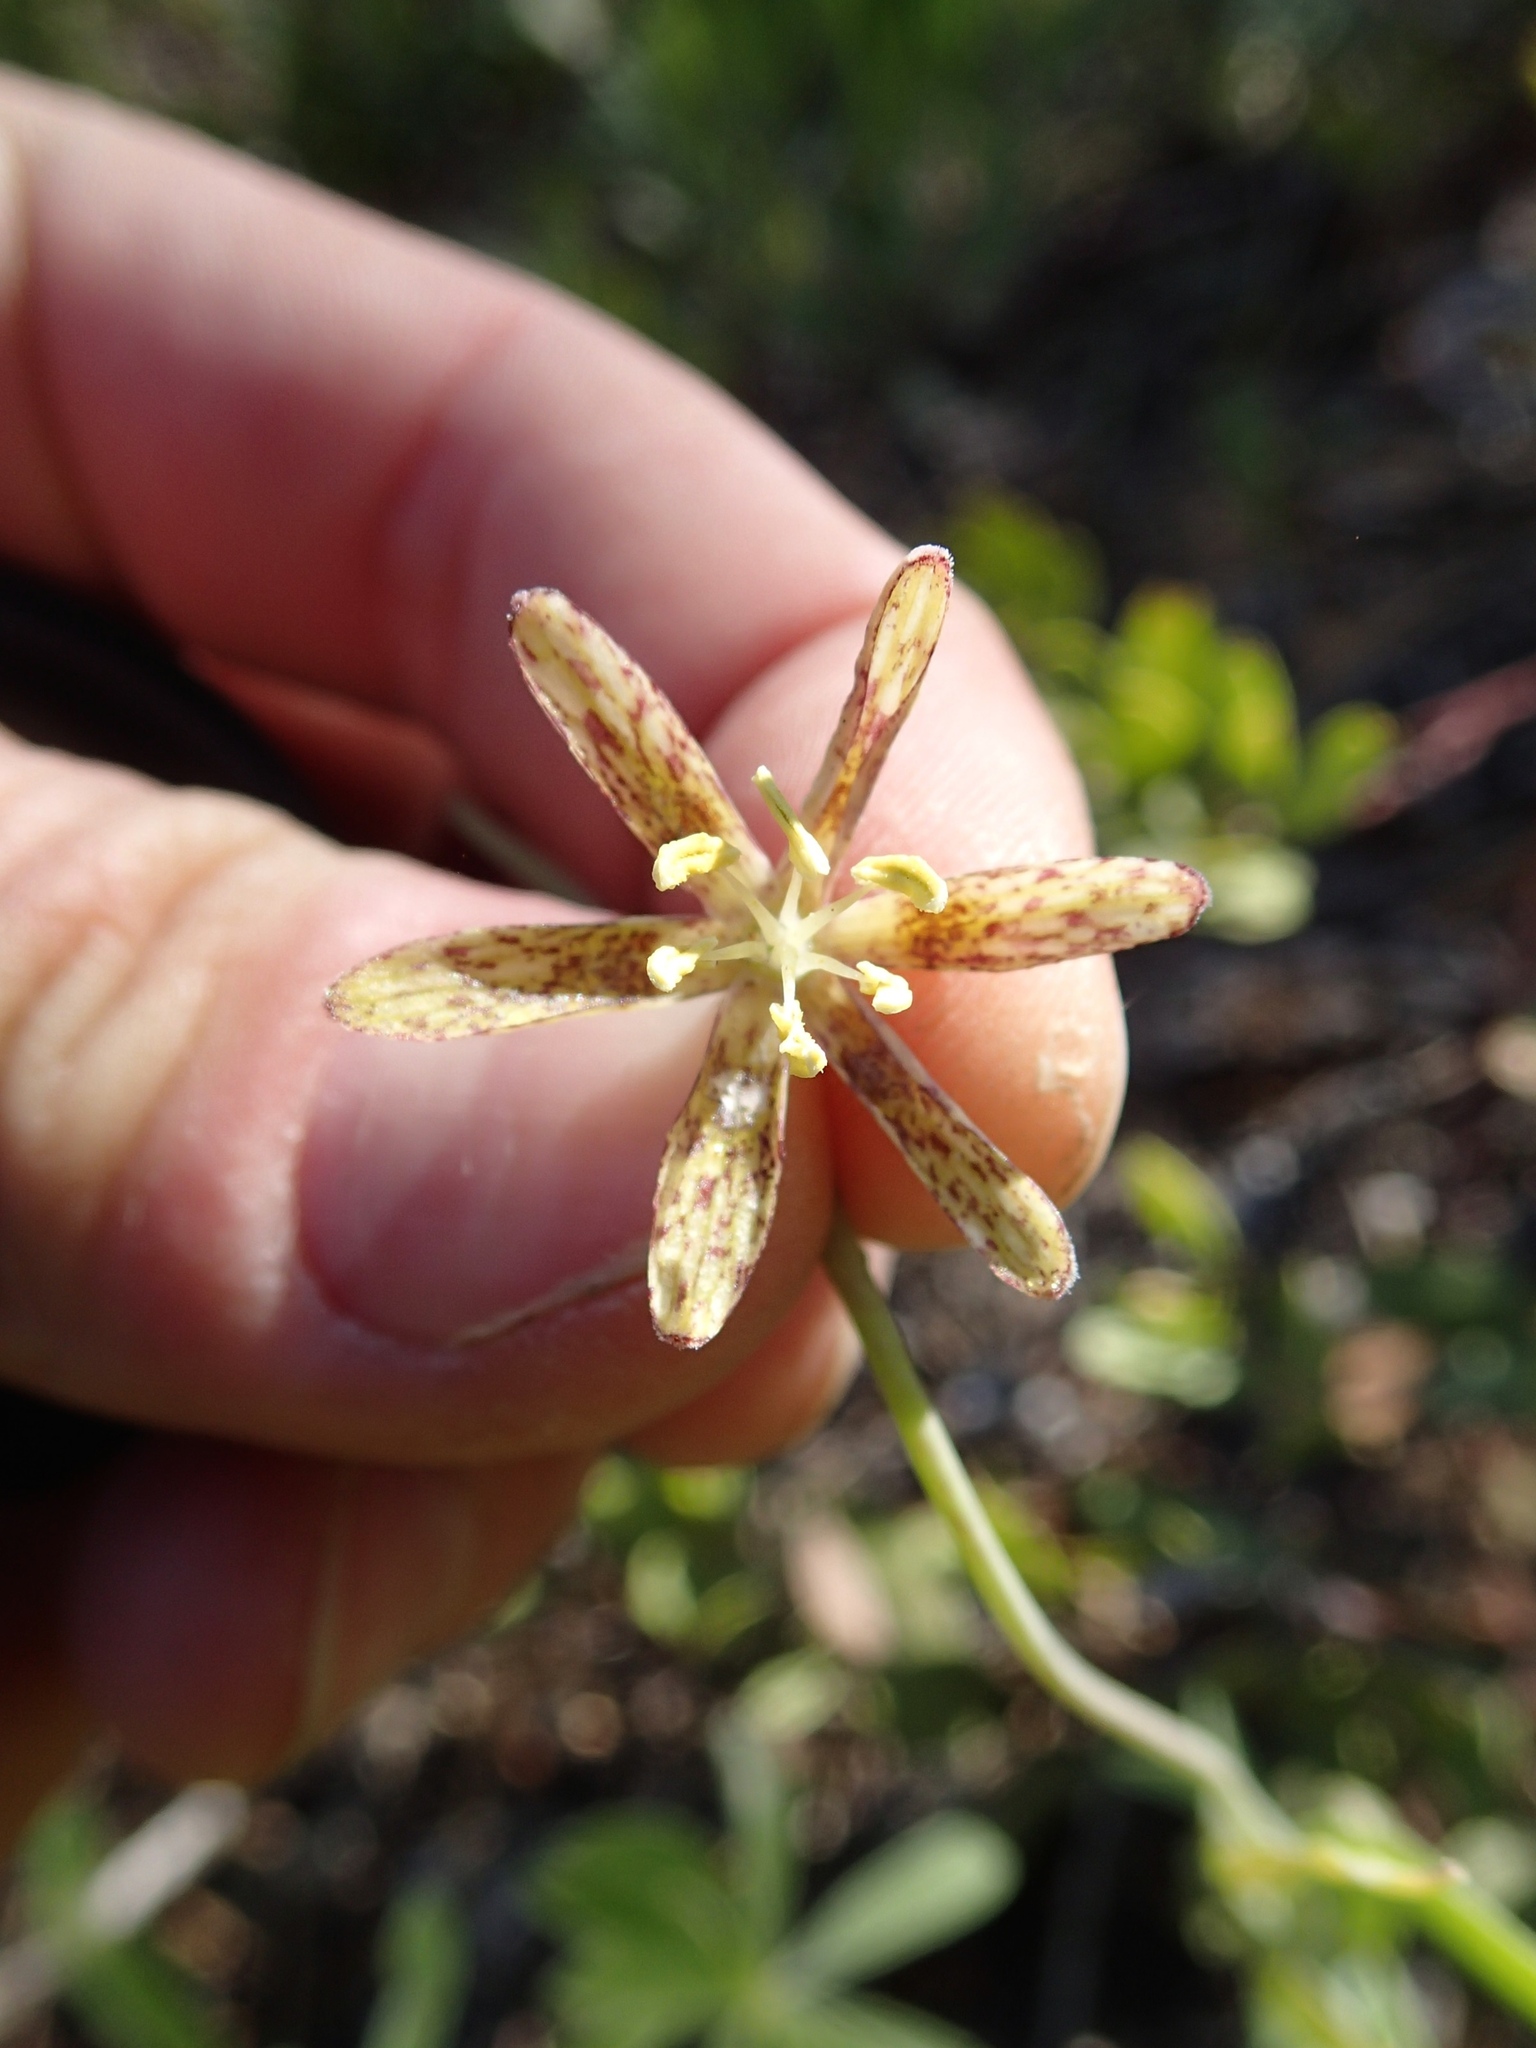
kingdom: Plantae
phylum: Tracheophyta
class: Liliopsida
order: Liliales
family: Liliaceae
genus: Fritillaria
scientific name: Fritillaria atropurpurea
